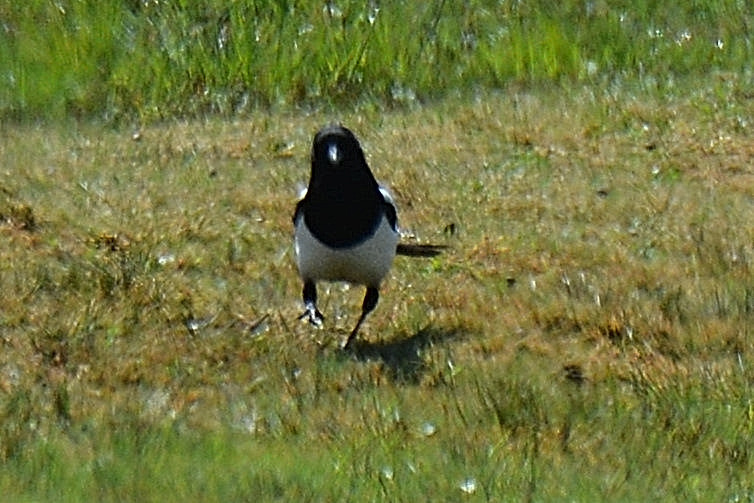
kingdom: Animalia
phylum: Chordata
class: Aves
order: Passeriformes
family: Corvidae
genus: Pica
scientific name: Pica pica
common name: Eurasian magpie
